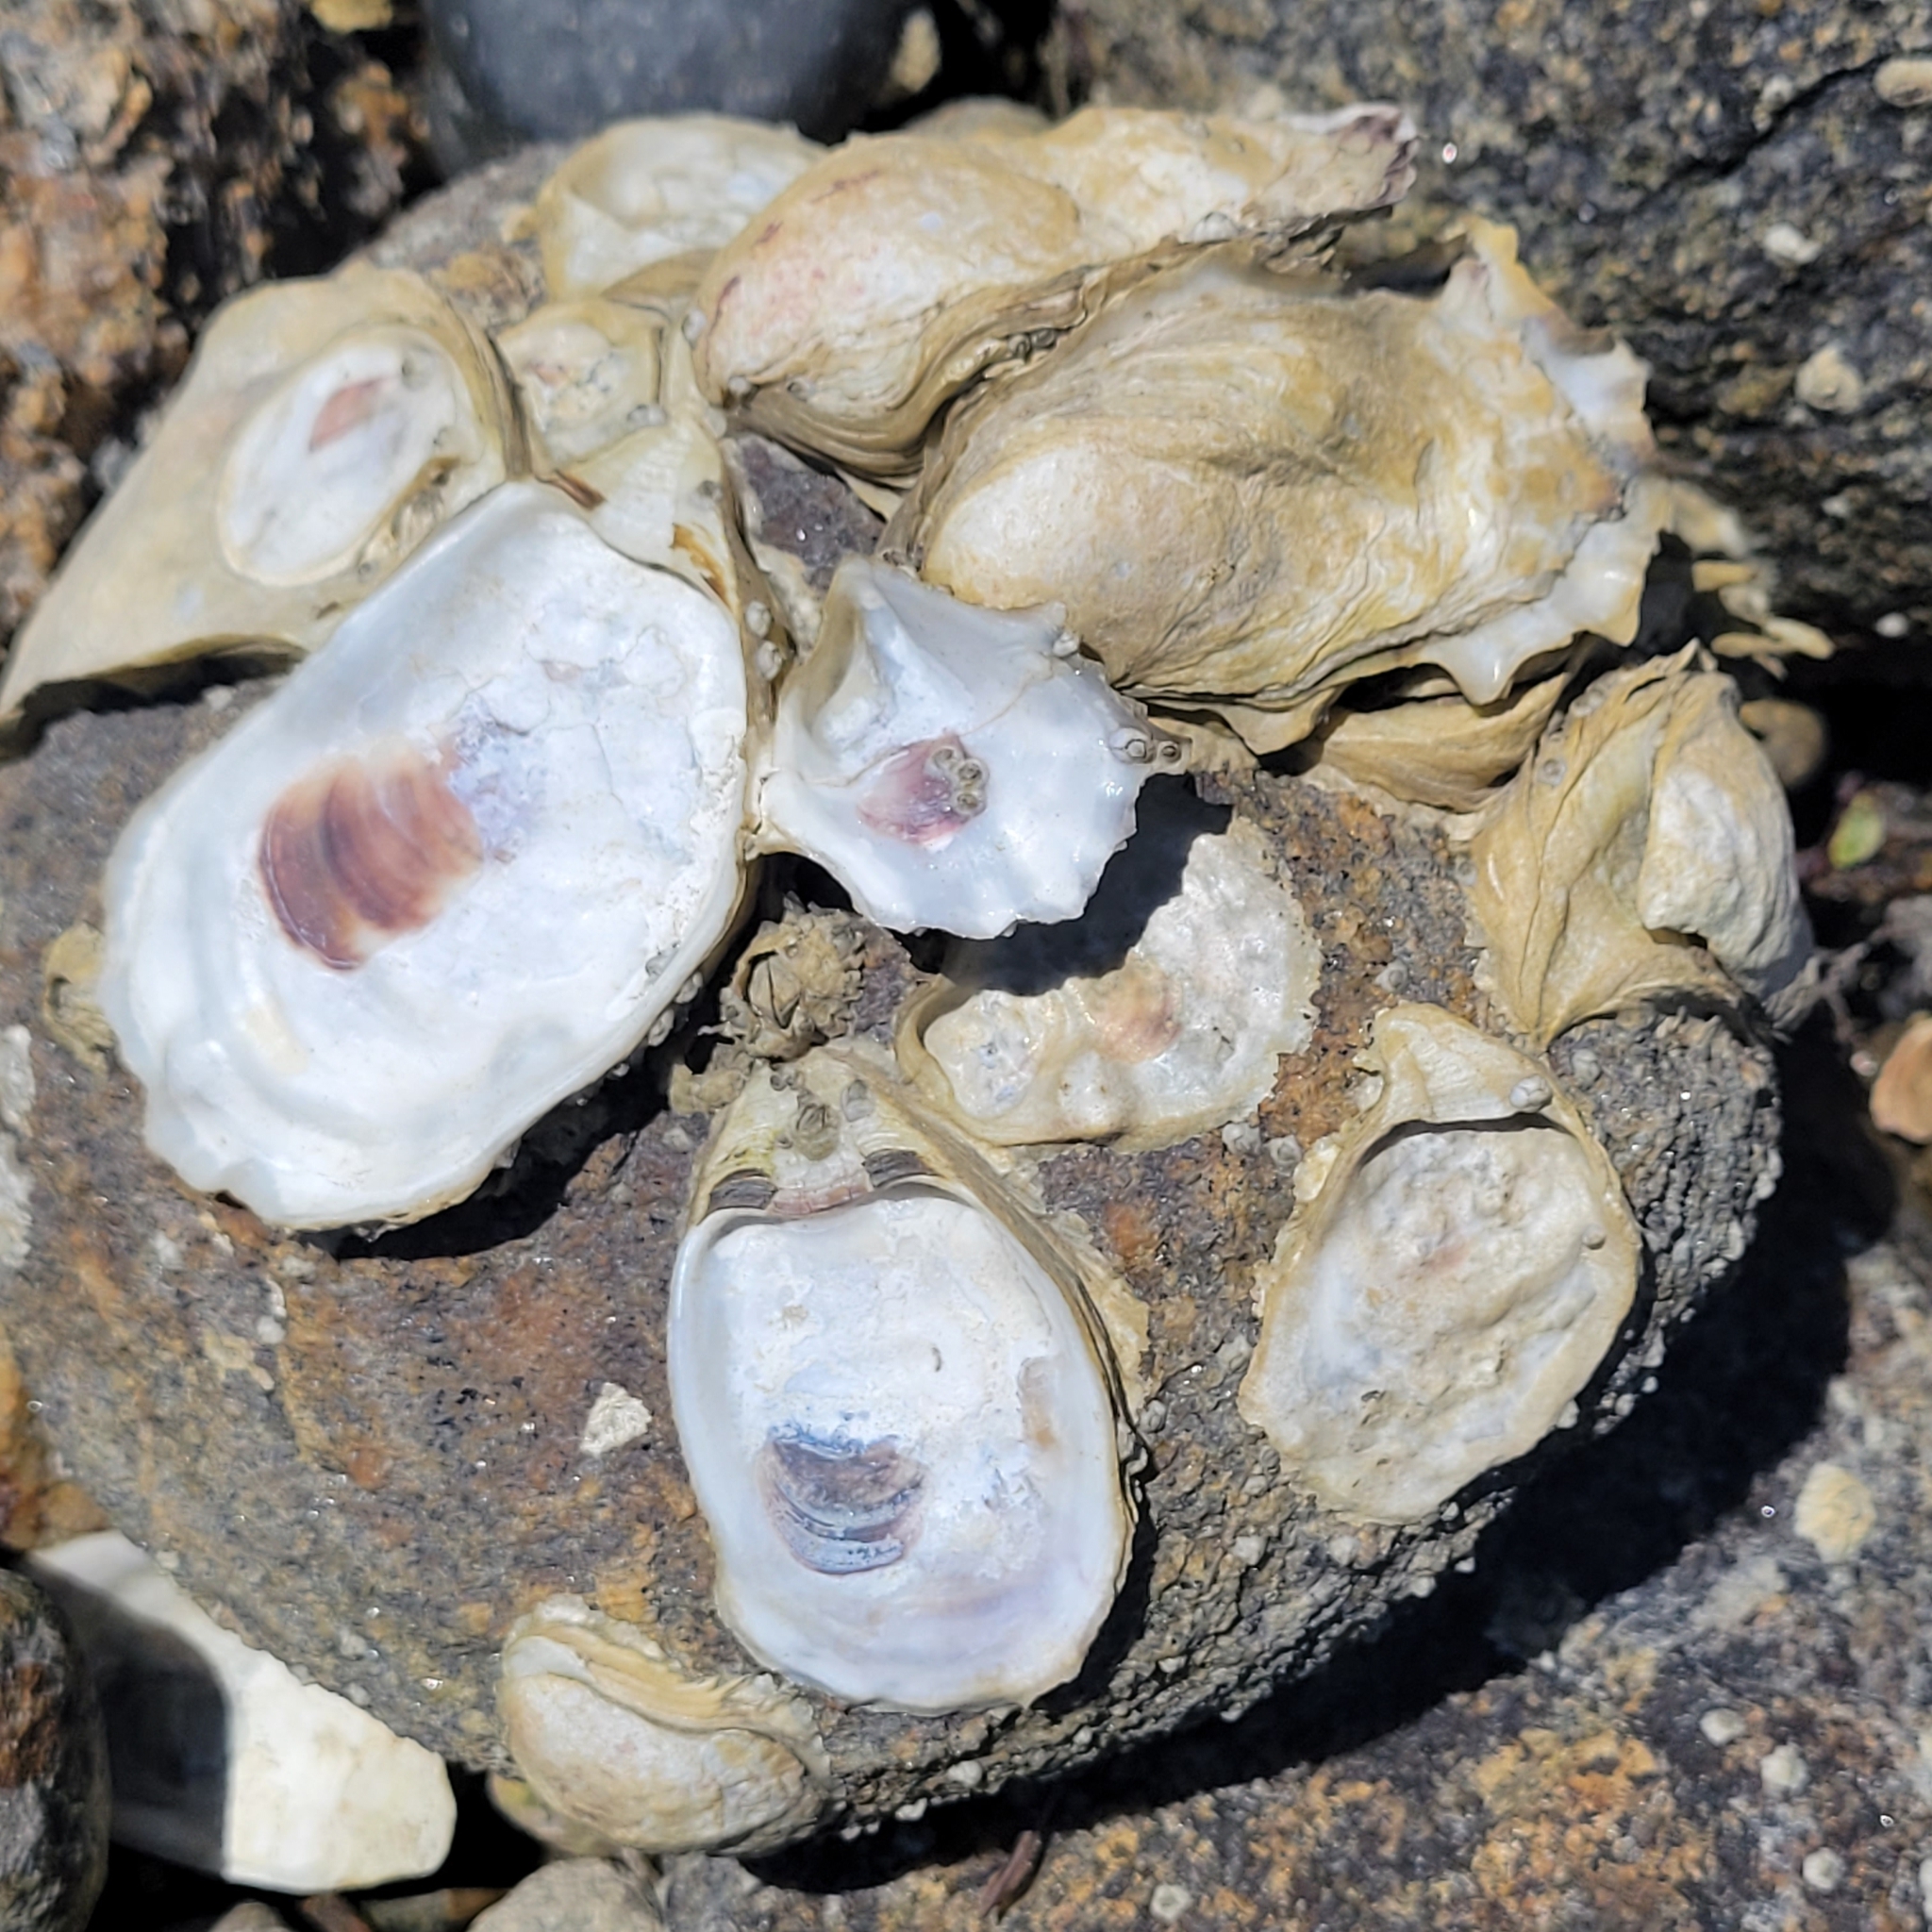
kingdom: Animalia
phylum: Mollusca
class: Bivalvia
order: Ostreida
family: Ostreidae
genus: Crassostrea
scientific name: Crassostrea virginica
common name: American oyster
